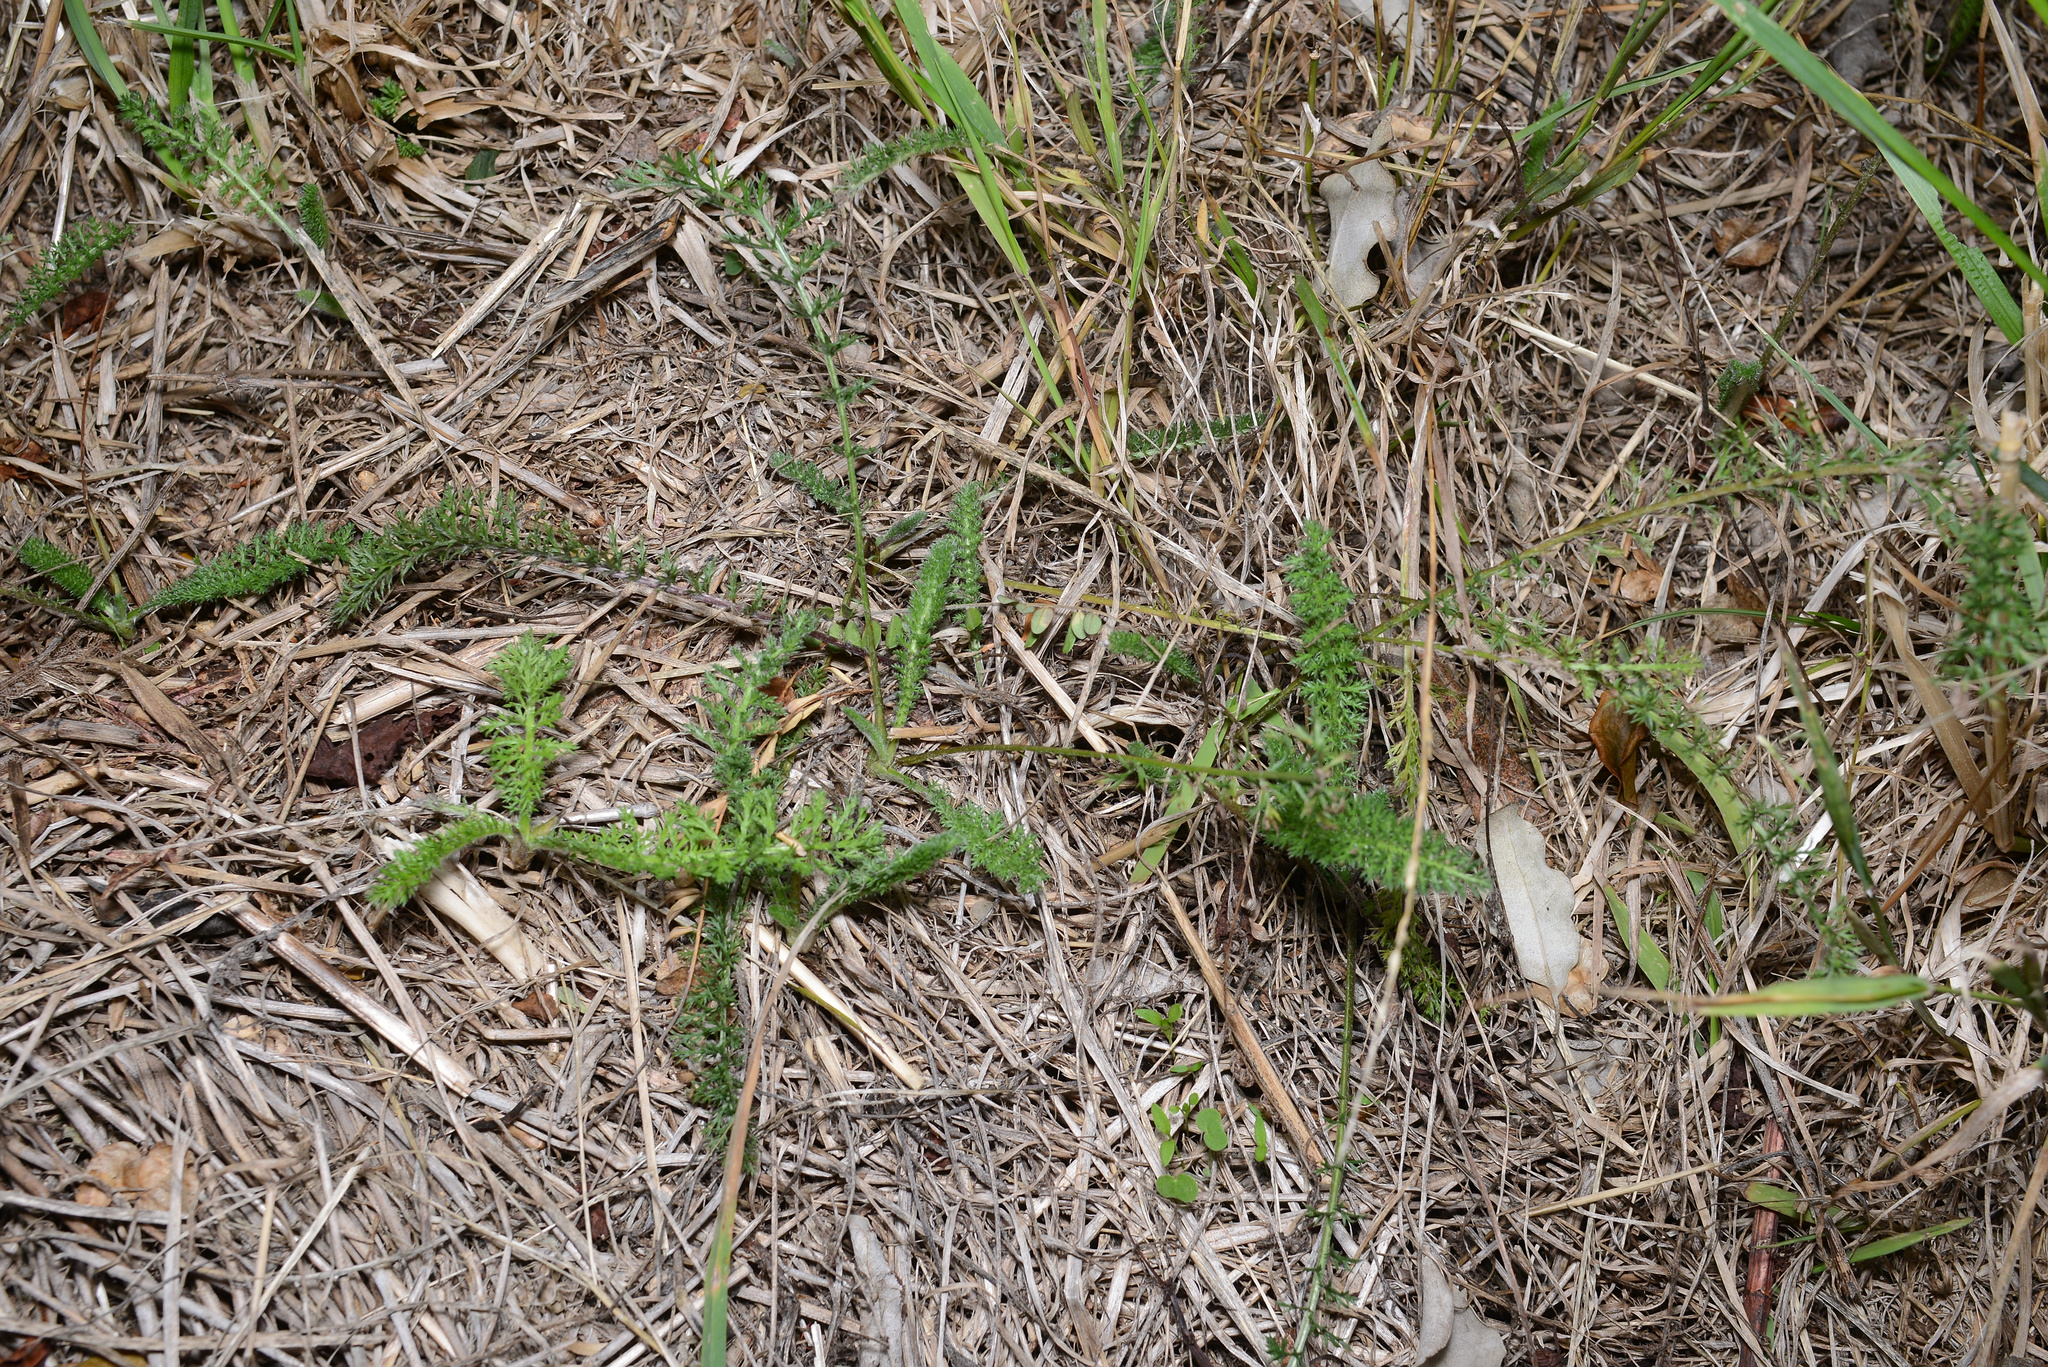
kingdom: Plantae
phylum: Tracheophyta
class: Magnoliopsida
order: Asterales
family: Asteraceae
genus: Achillea
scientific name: Achillea millefolium
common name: Yarrow
